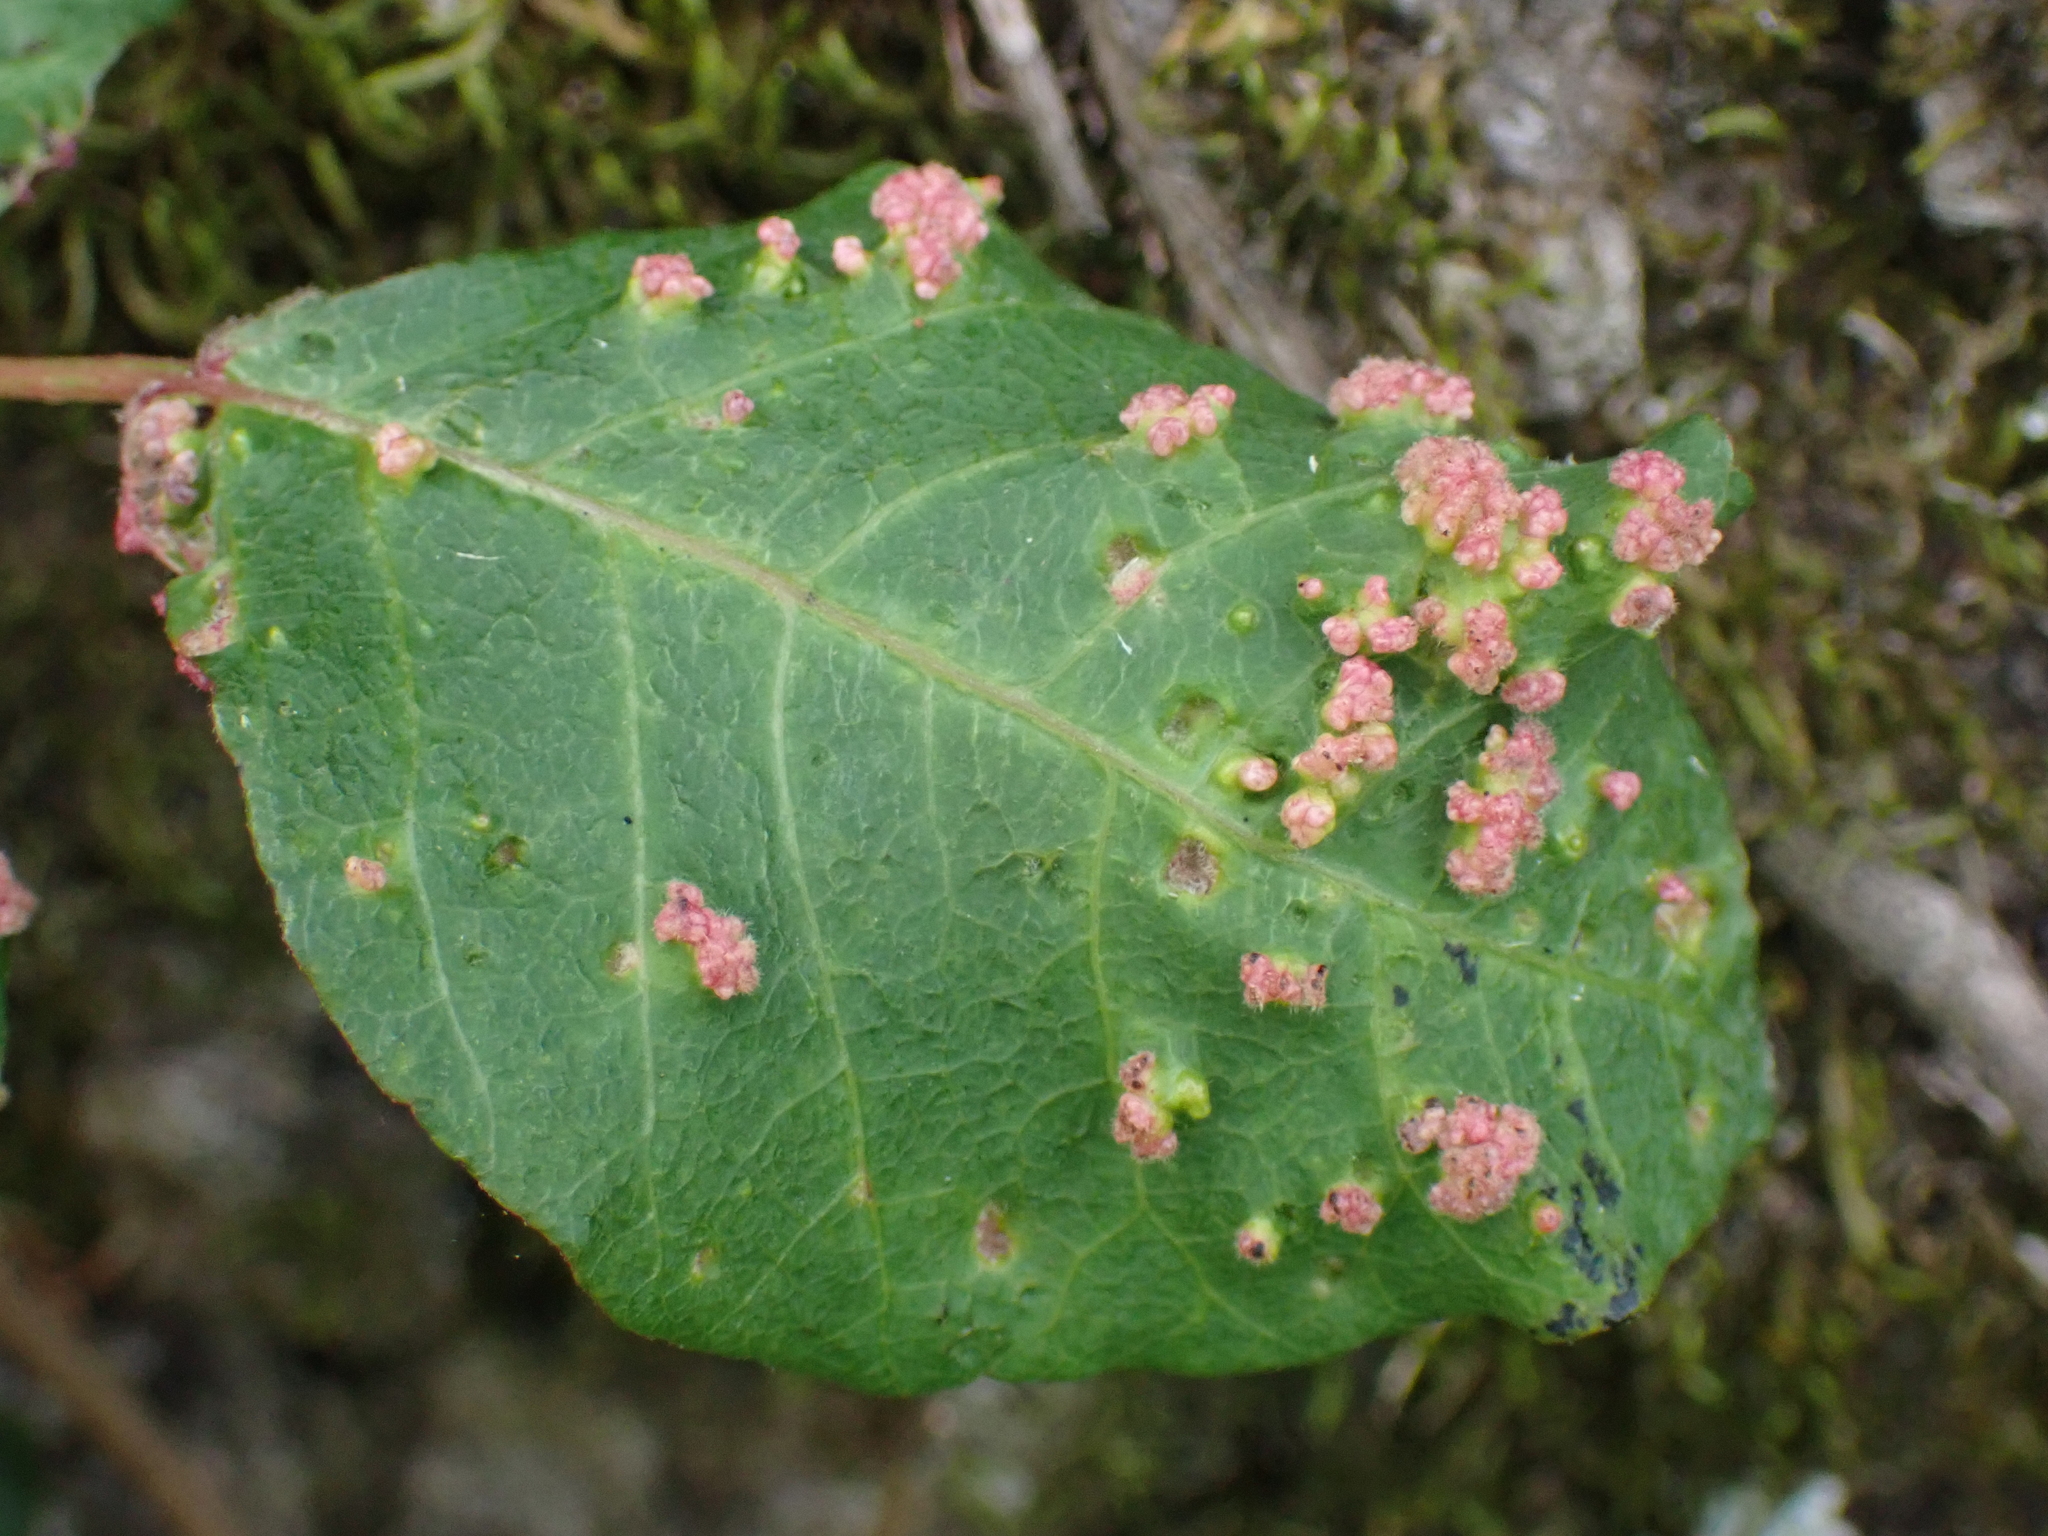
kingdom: Animalia
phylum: Arthropoda
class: Arachnida
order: Trombidiformes
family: Eriophyidae
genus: Aculops
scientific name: Aculops
